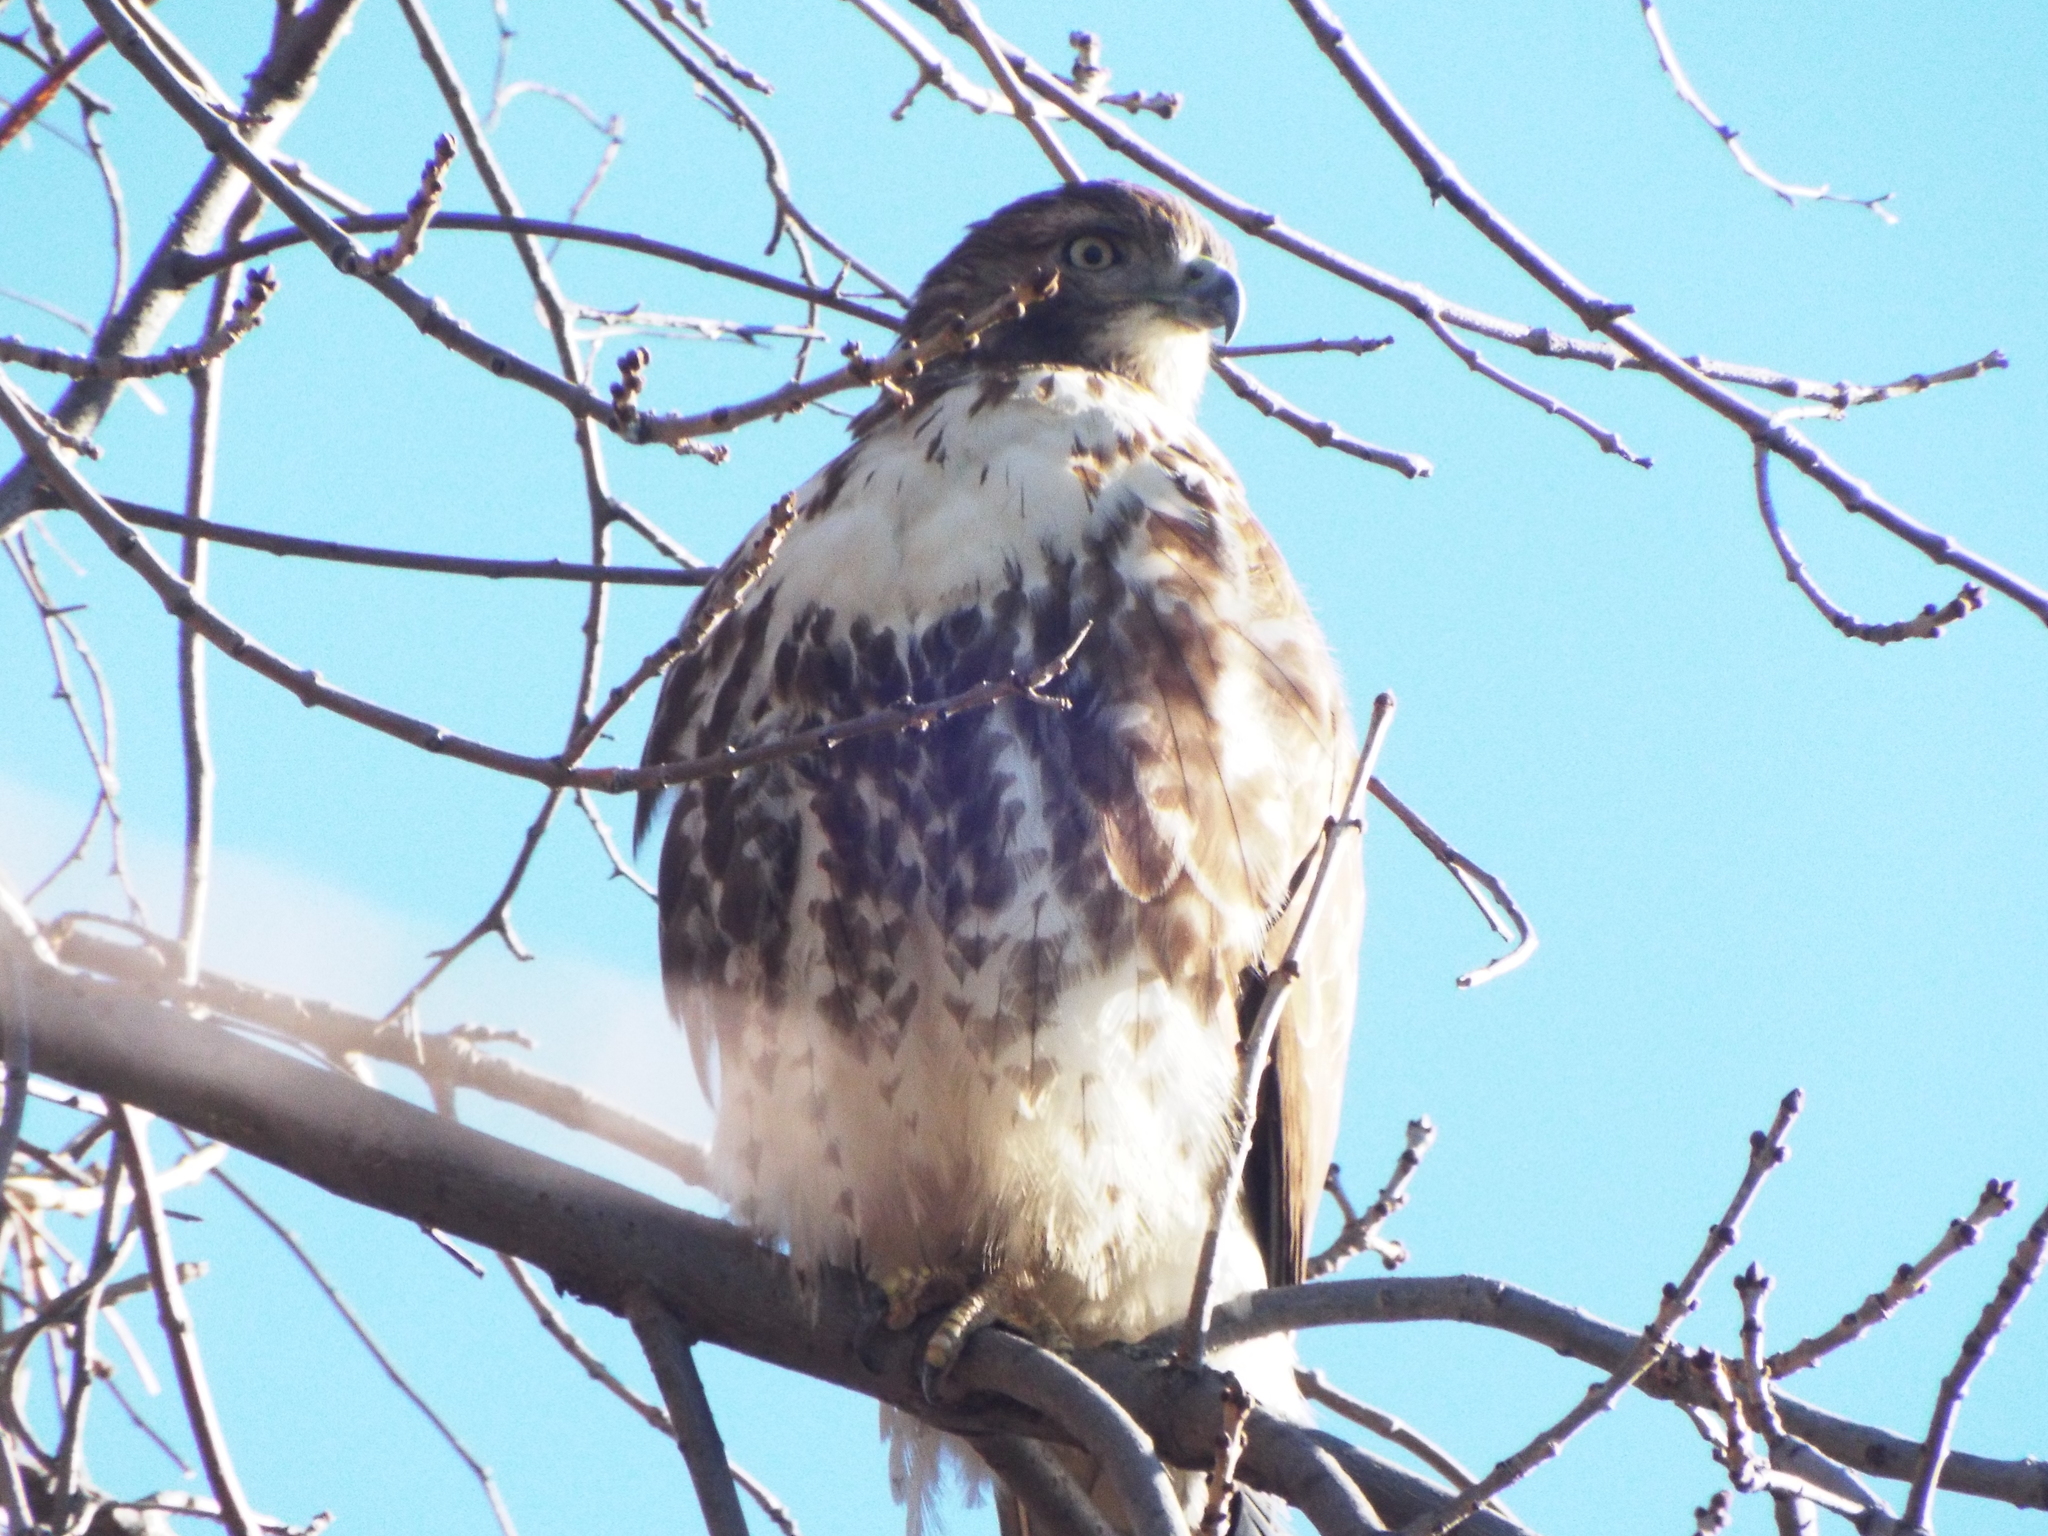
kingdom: Animalia
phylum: Chordata
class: Aves
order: Accipitriformes
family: Accipitridae
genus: Buteo
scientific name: Buteo jamaicensis
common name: Red-tailed hawk
